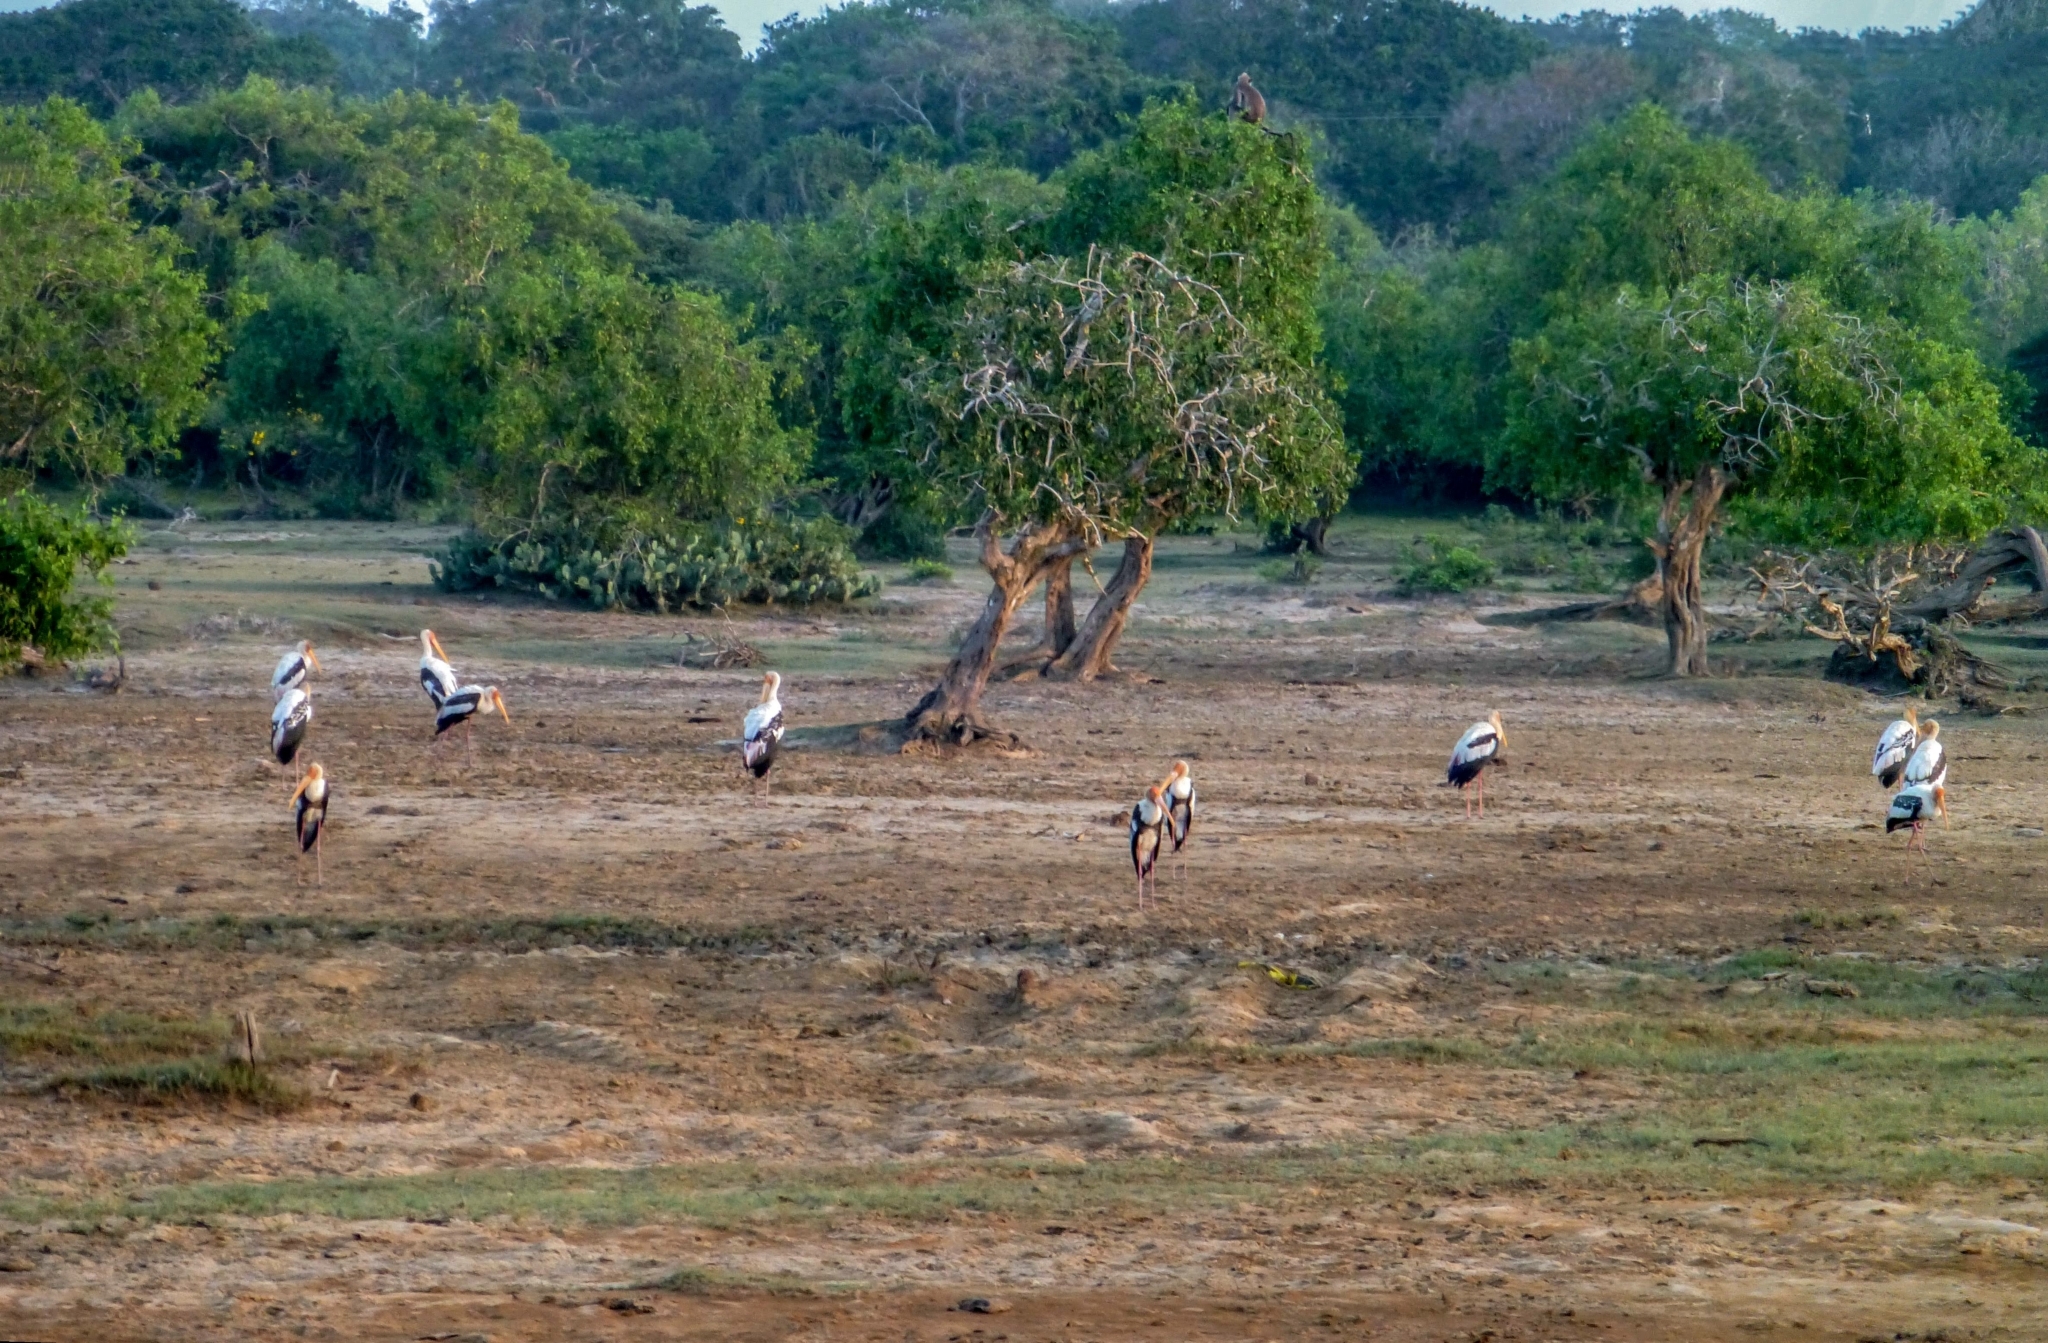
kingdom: Animalia
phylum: Chordata
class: Aves
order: Ciconiiformes
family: Ciconiidae
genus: Mycteria
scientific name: Mycteria leucocephala
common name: Painted stork
